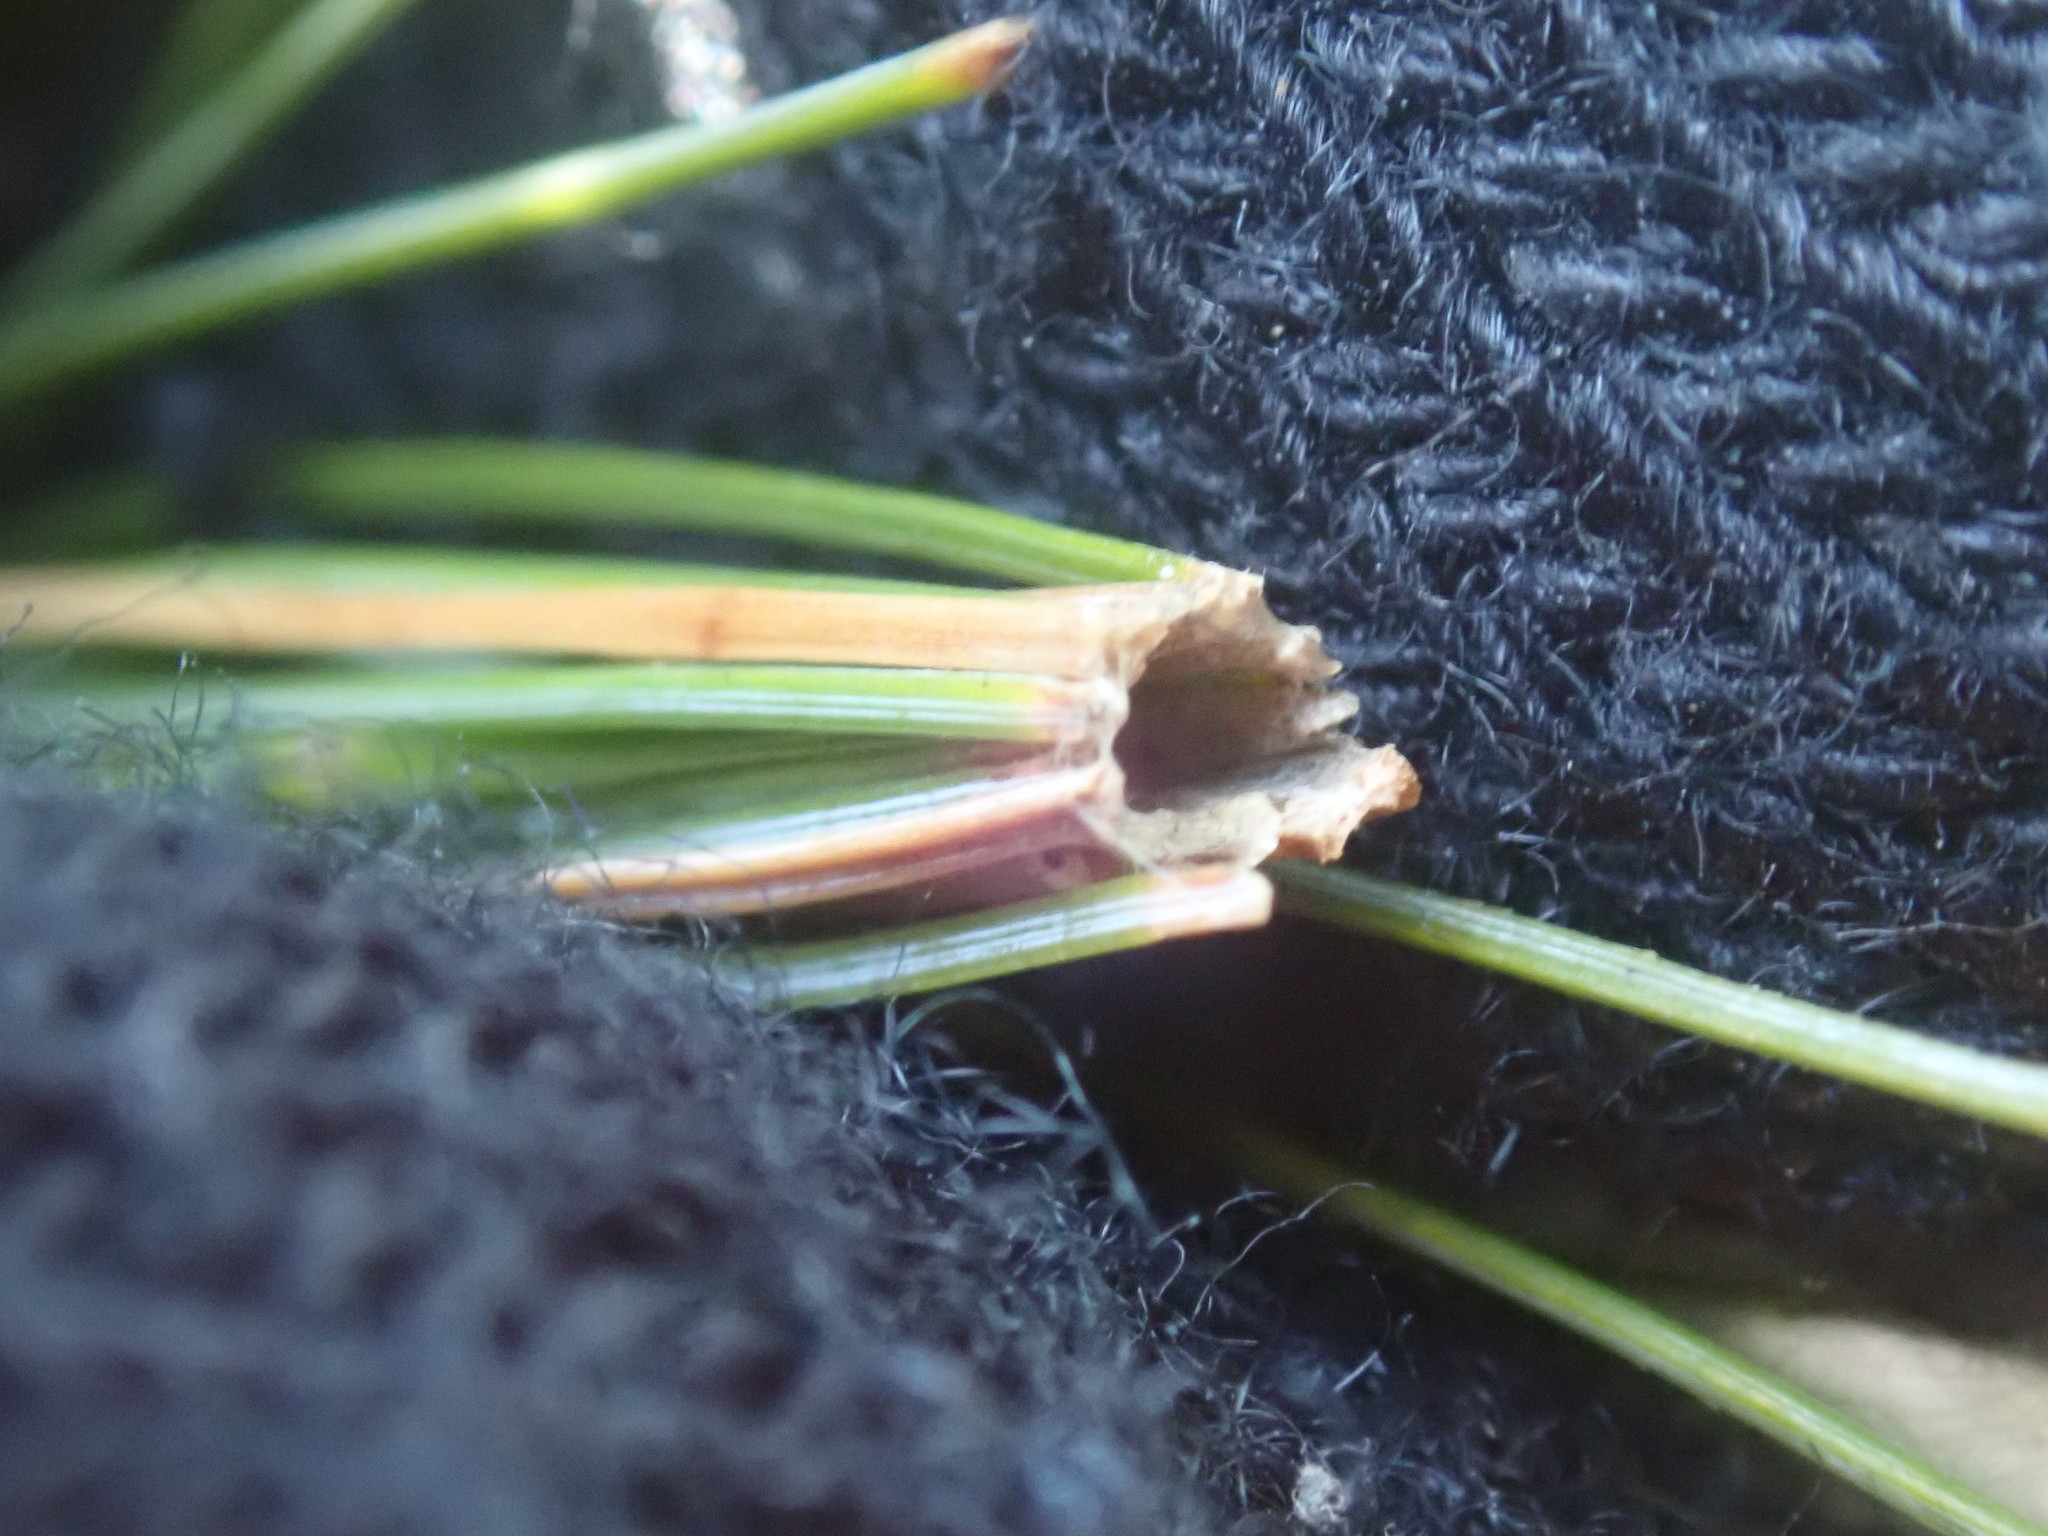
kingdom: Animalia
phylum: Arthropoda
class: Insecta
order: Lepidoptera
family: Tortricidae
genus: Argyrotaenia
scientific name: Argyrotaenia pinatubana
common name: Pine tube moth
